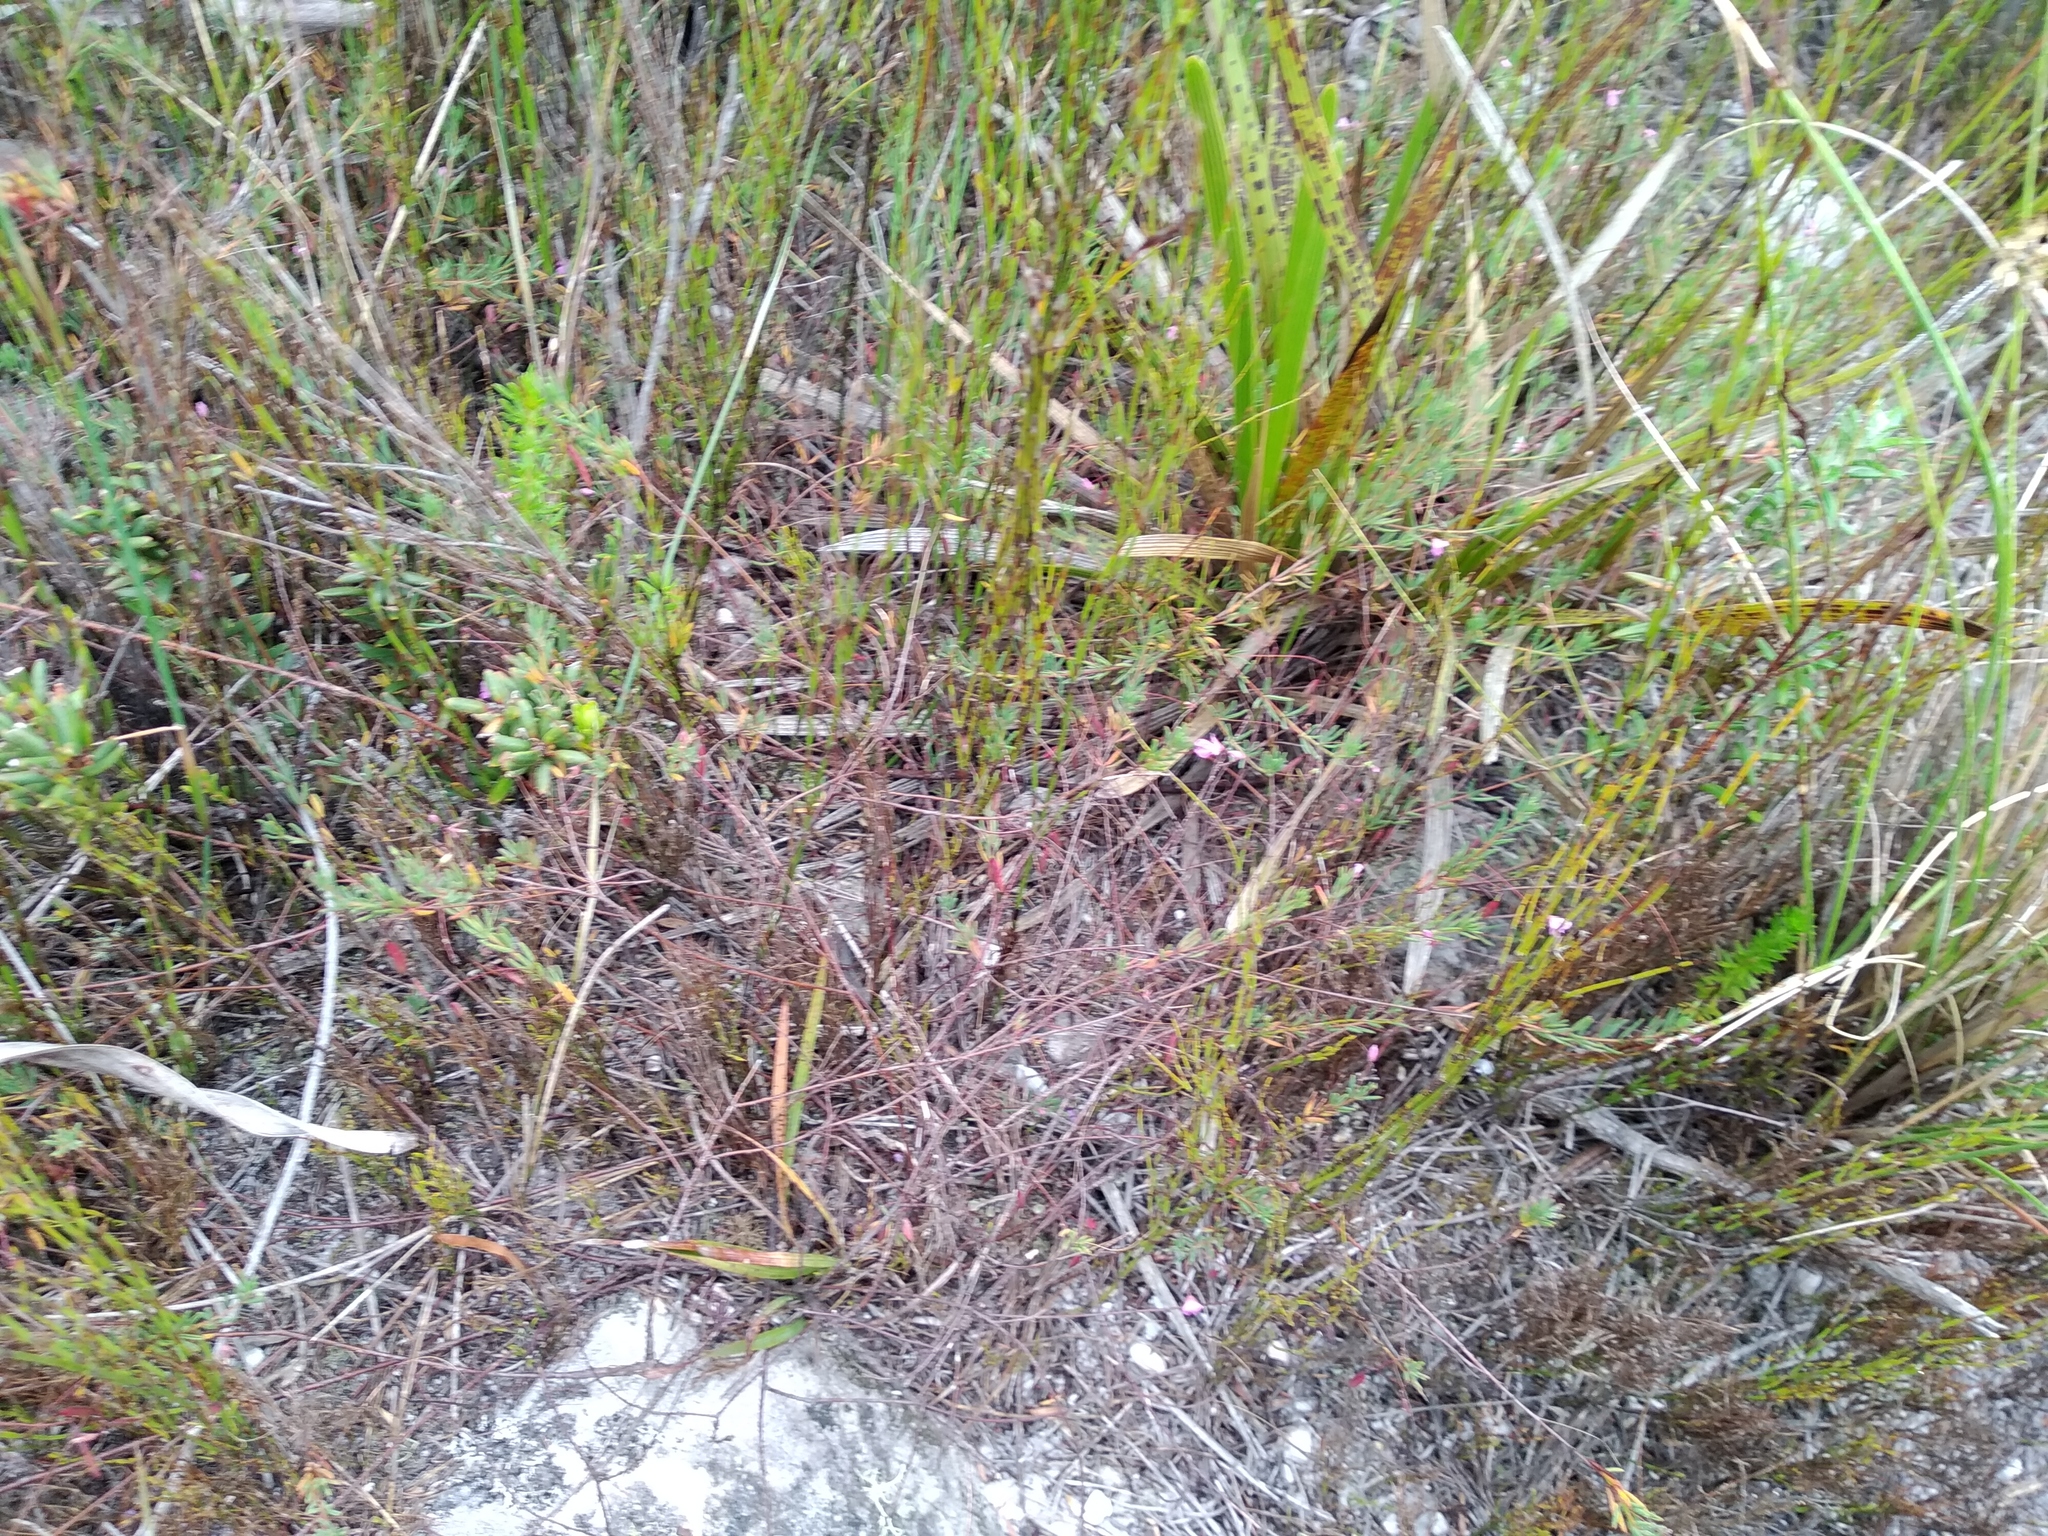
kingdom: Plantae
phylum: Tracheophyta
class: Magnoliopsida
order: Fabales
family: Fabaceae
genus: Indigofera
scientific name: Indigofera filicaulis
